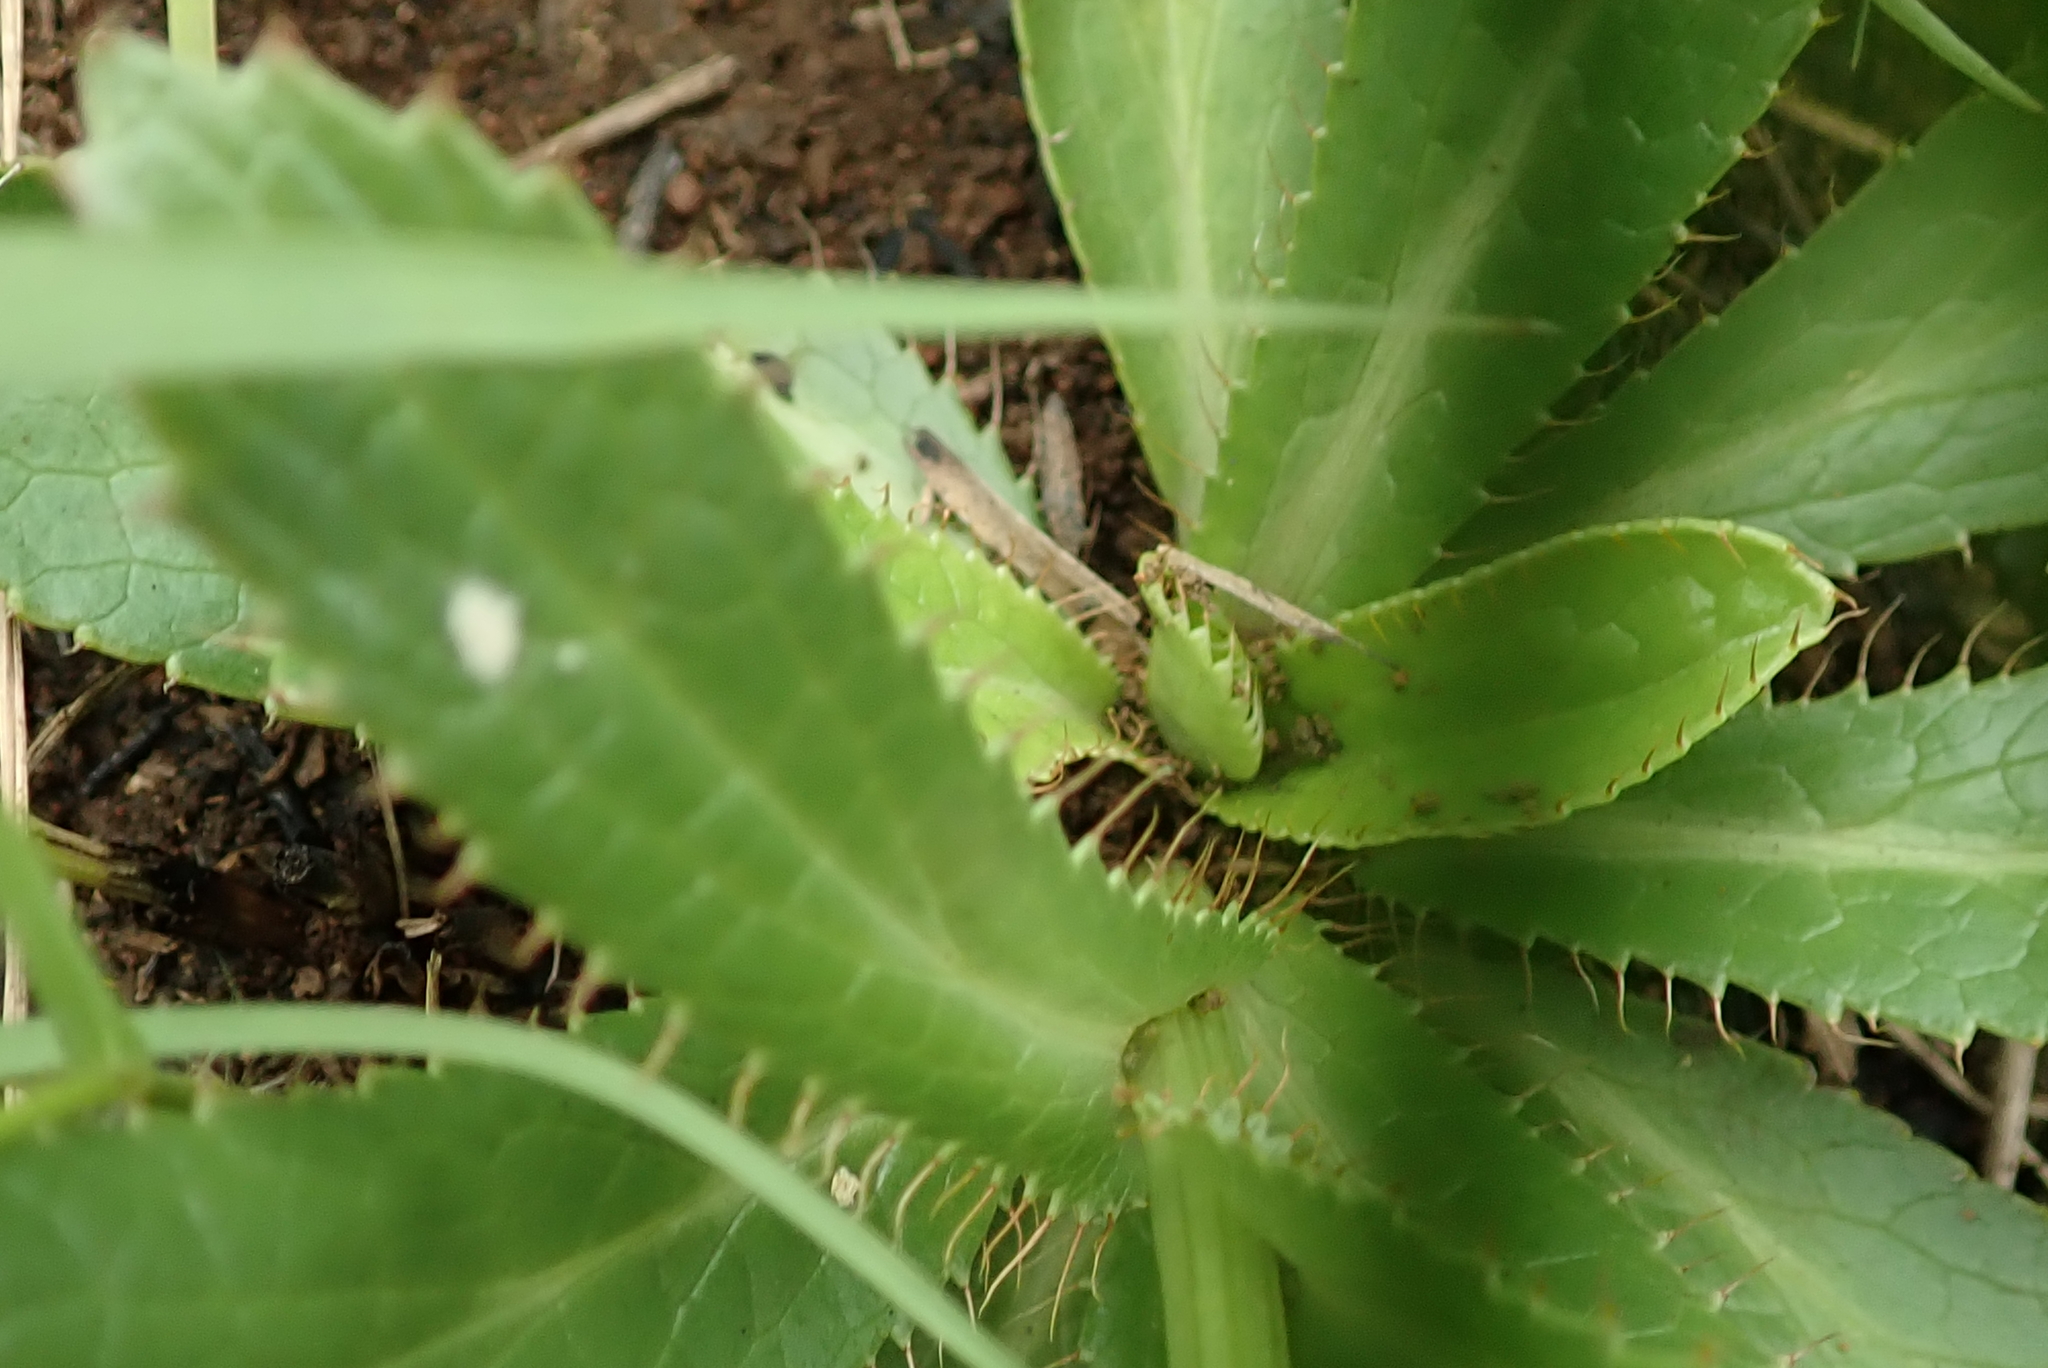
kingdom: Plantae
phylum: Tracheophyta
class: Magnoliopsida
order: Apiales
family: Apiaceae
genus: Alepidea
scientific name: Alepidea peduncularis
